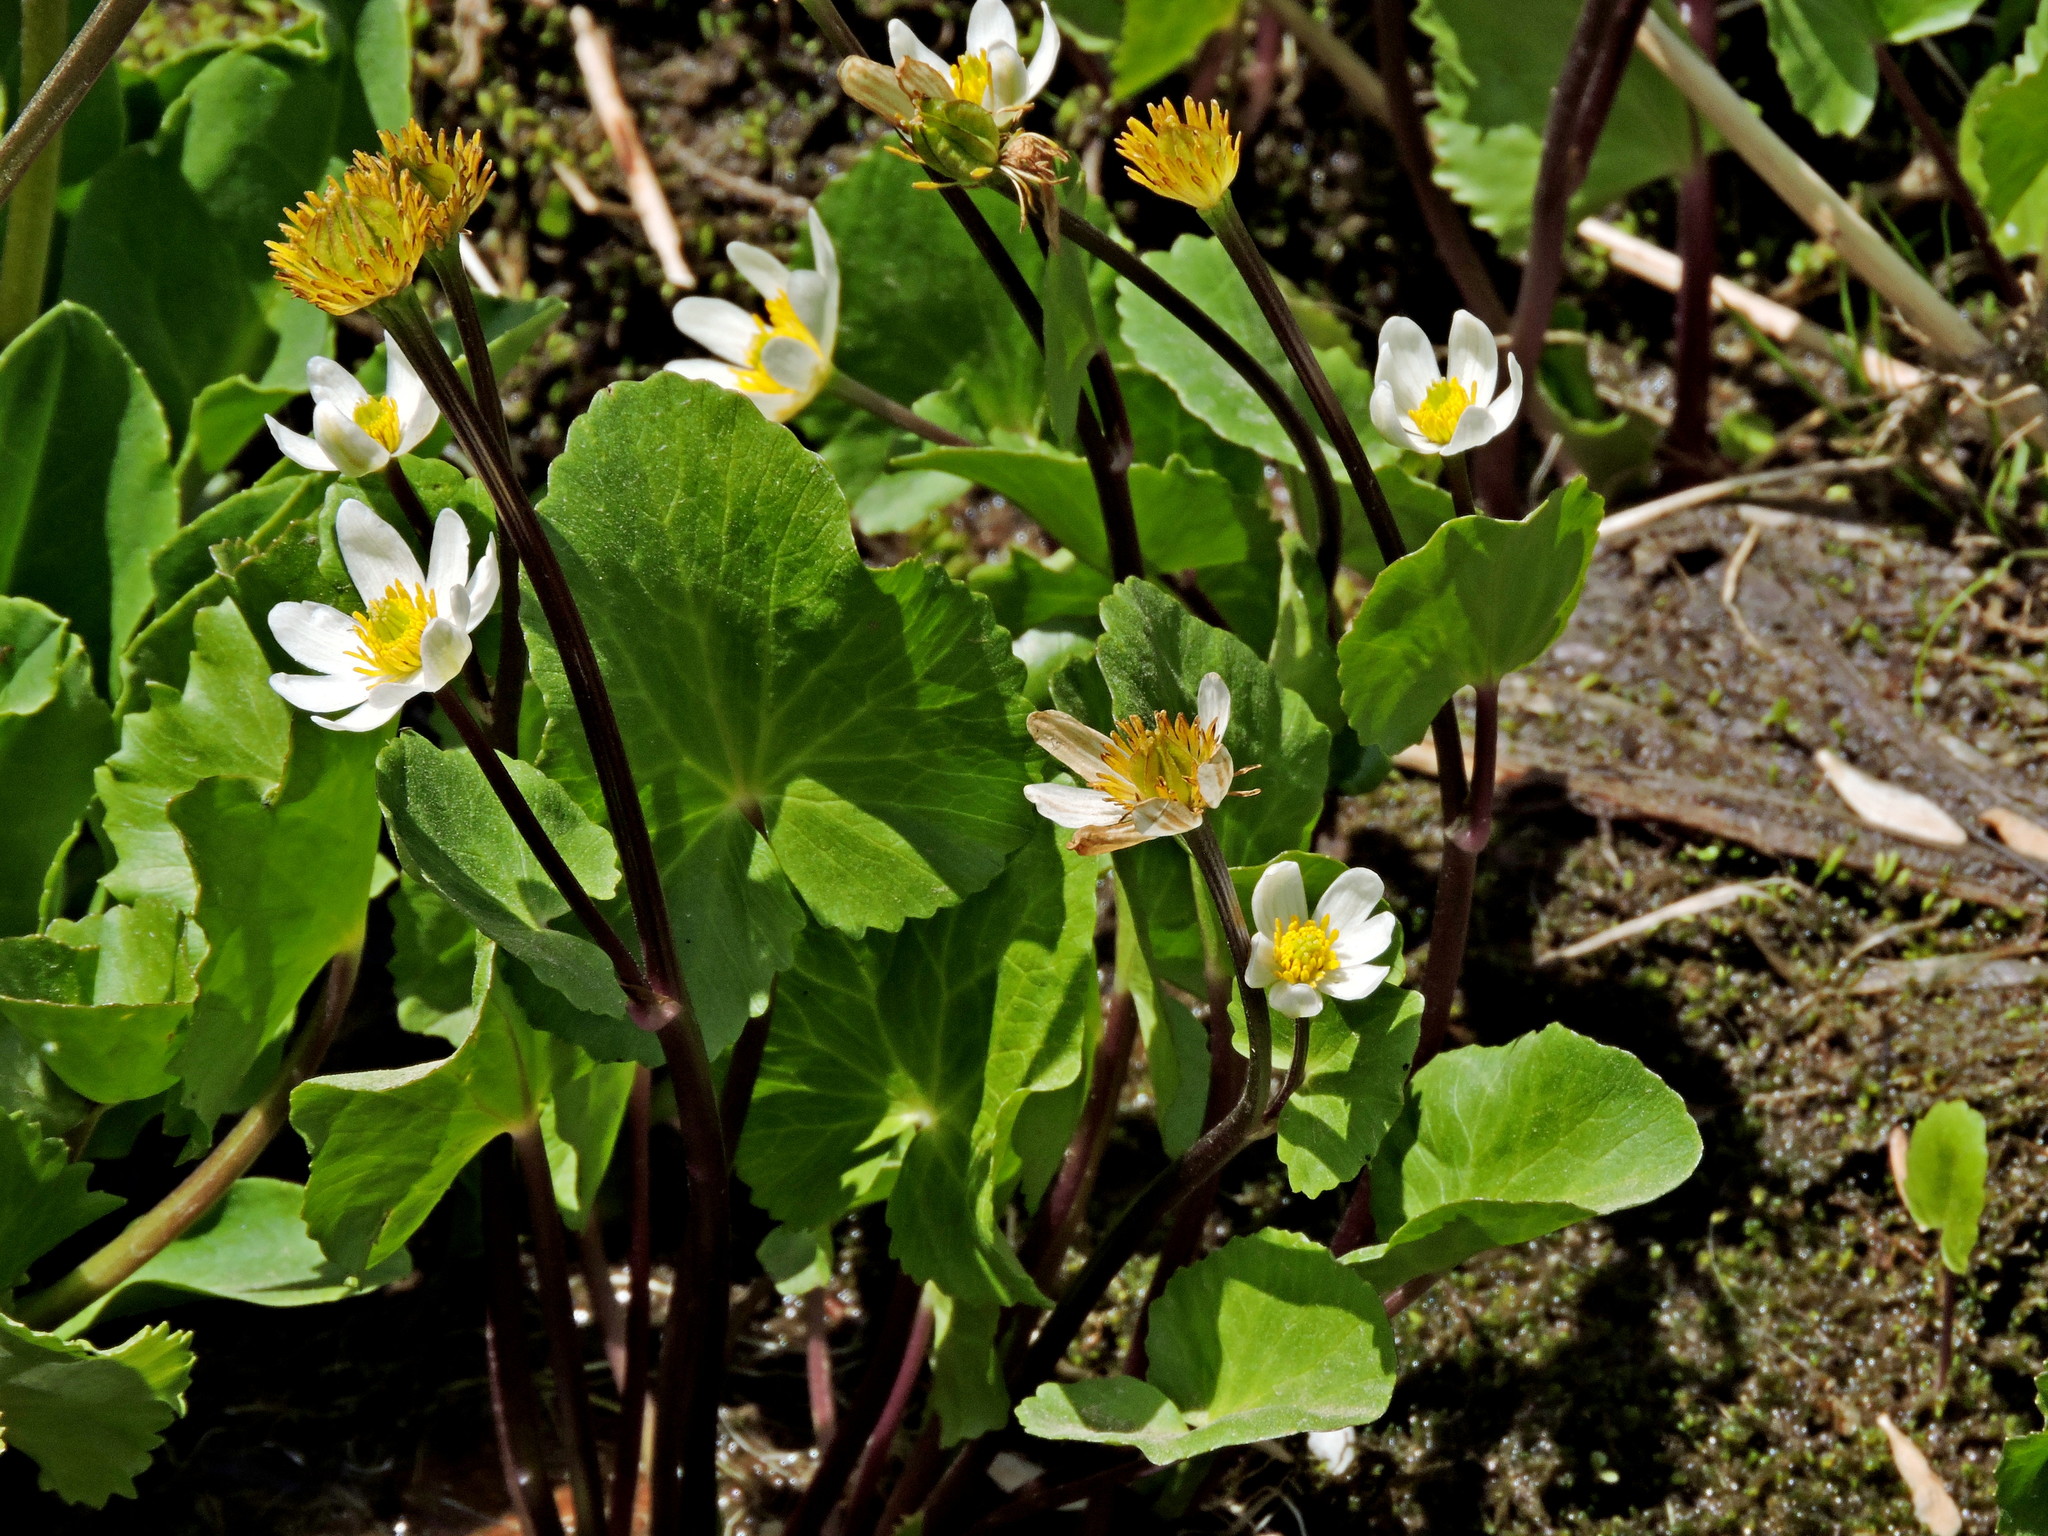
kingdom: Plantae
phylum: Tracheophyta
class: Magnoliopsida
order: Ranunculales
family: Ranunculaceae
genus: Caltha
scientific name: Caltha leptosepala
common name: Elkslip
